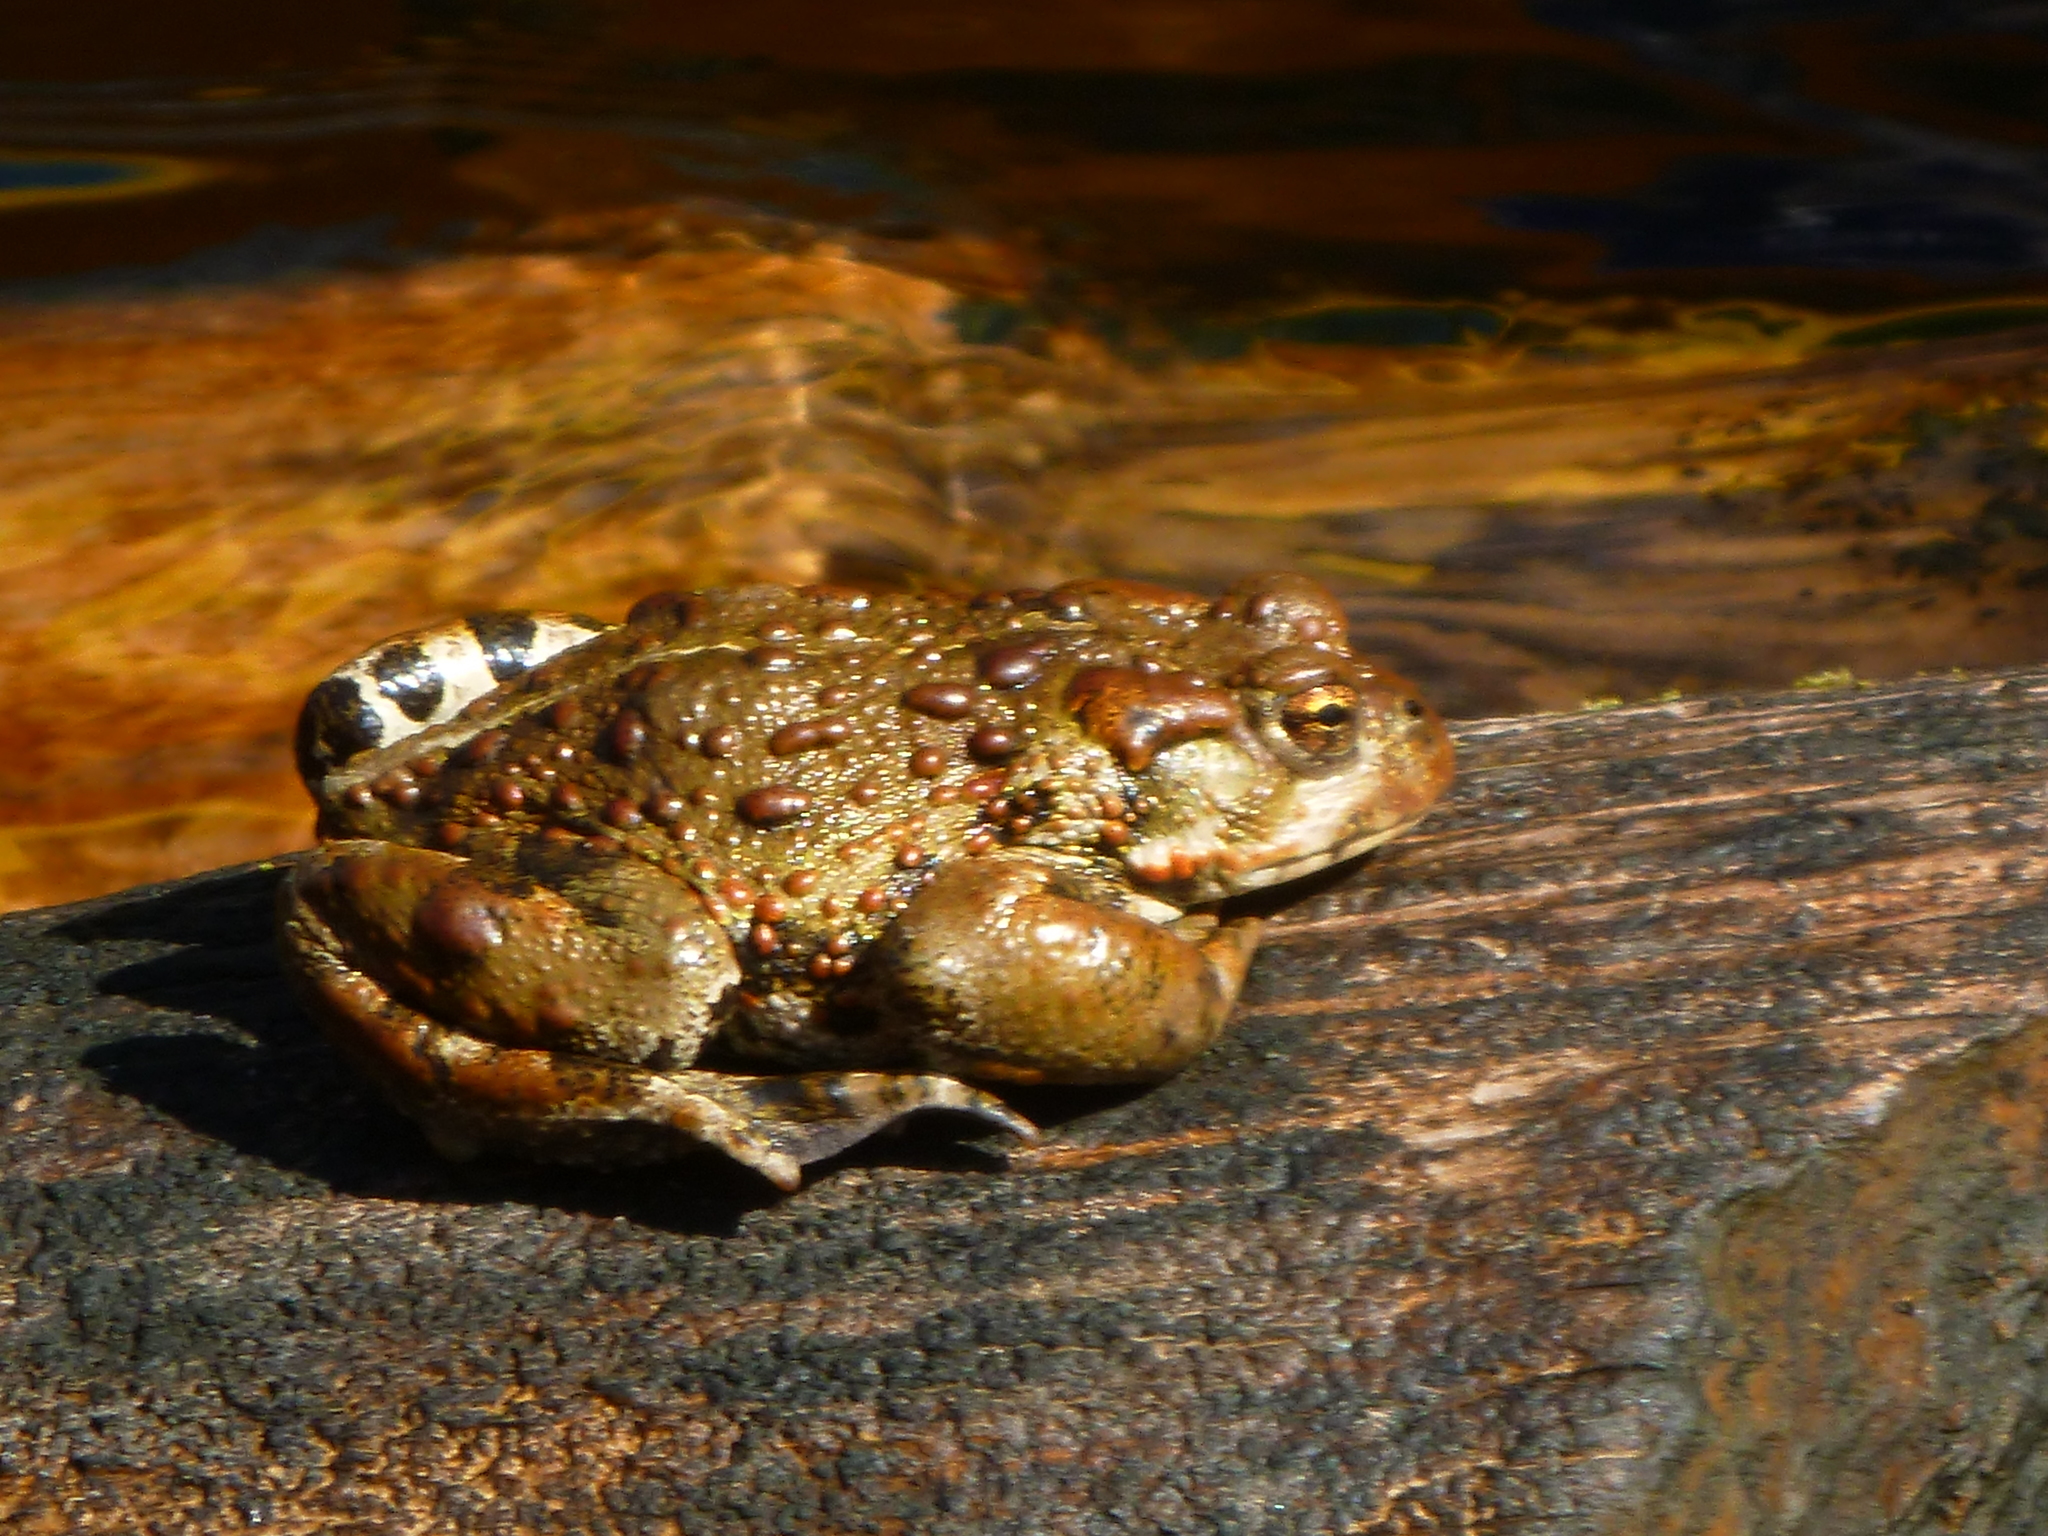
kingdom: Animalia
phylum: Chordata
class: Amphibia
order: Anura
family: Bufonidae
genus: Anaxyrus
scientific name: Anaxyrus boreas
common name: Western toad
